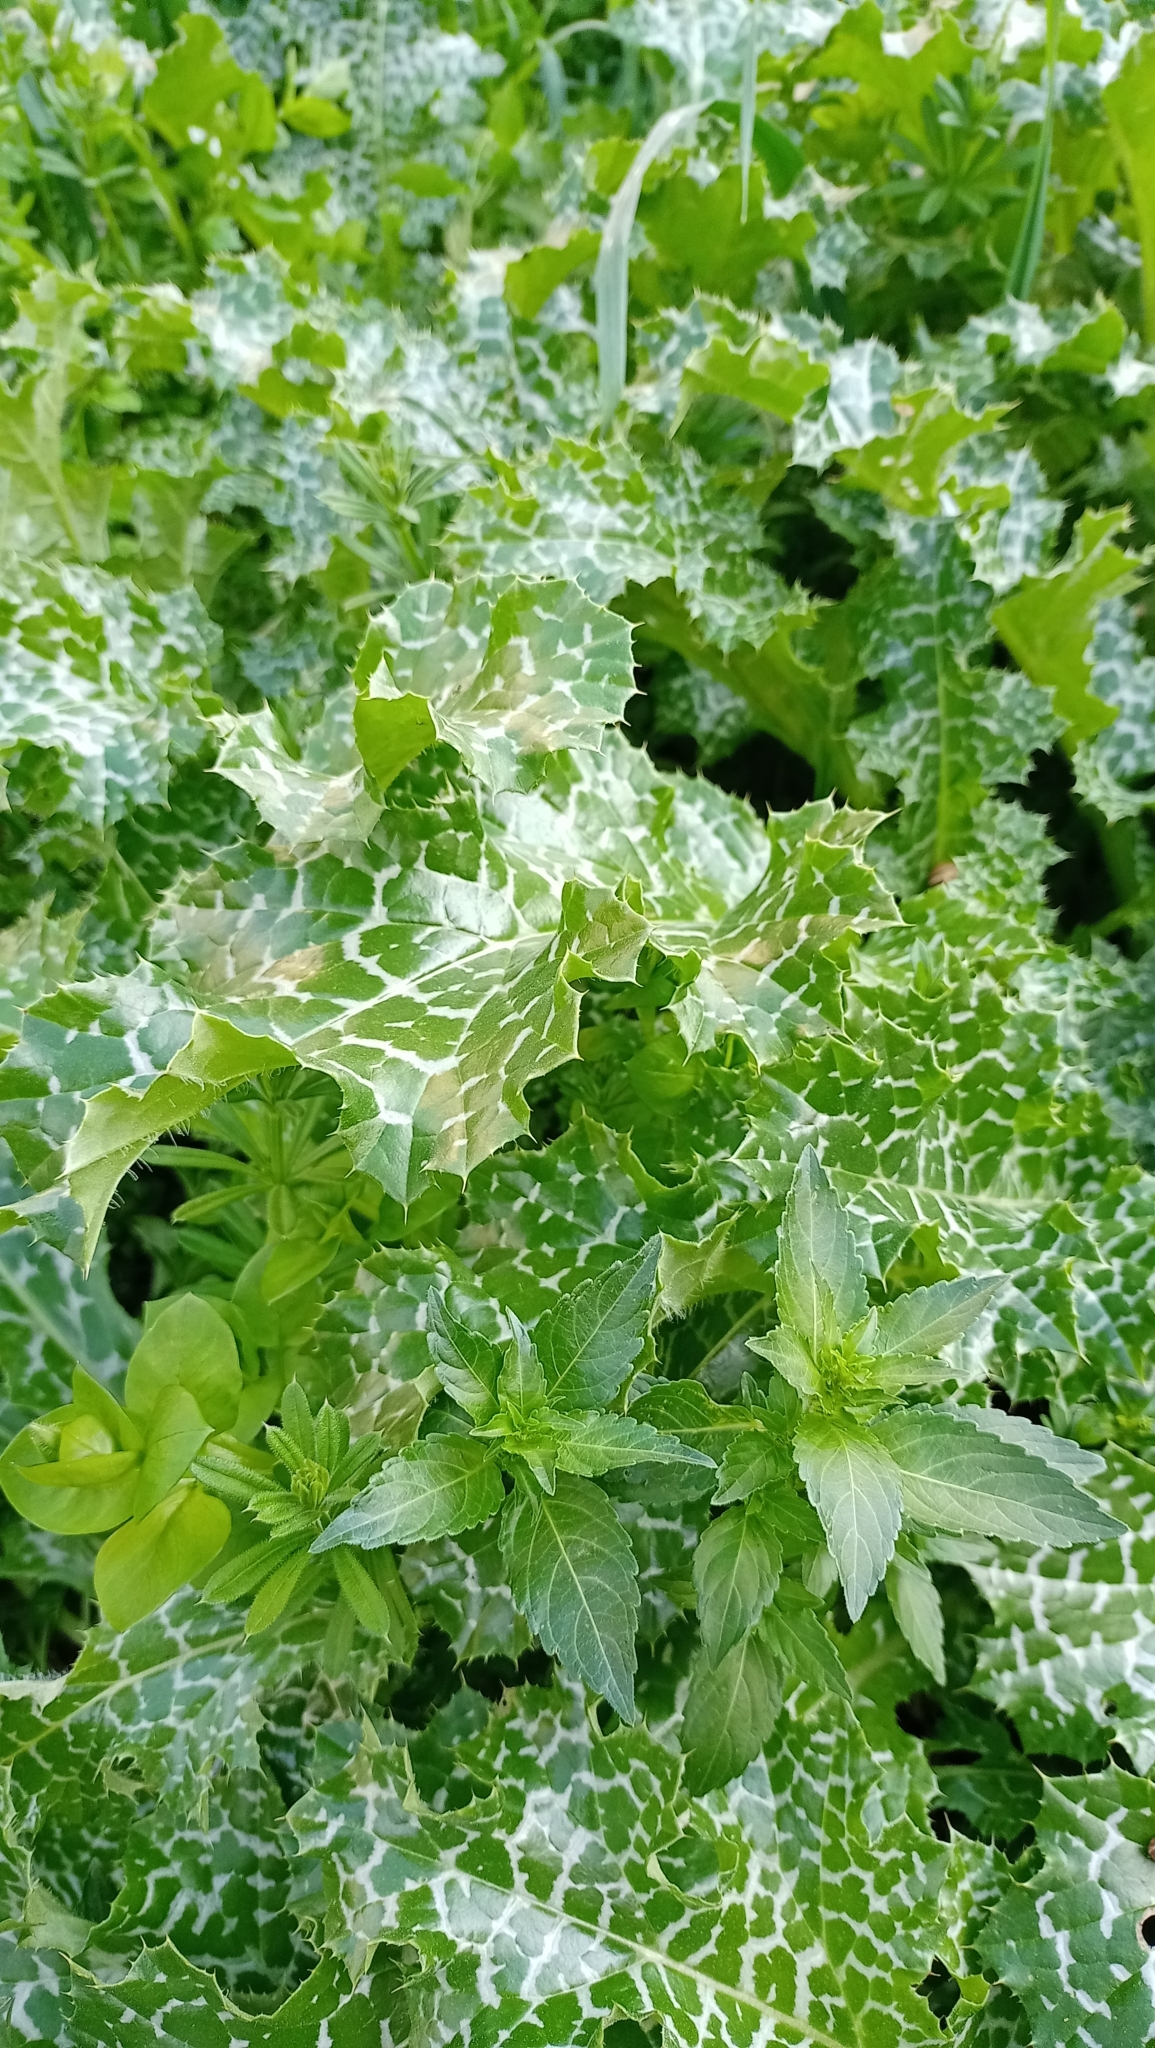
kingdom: Plantae
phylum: Tracheophyta
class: Magnoliopsida
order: Asterales
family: Asteraceae
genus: Silybum
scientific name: Silybum marianum
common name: Milk thistle
